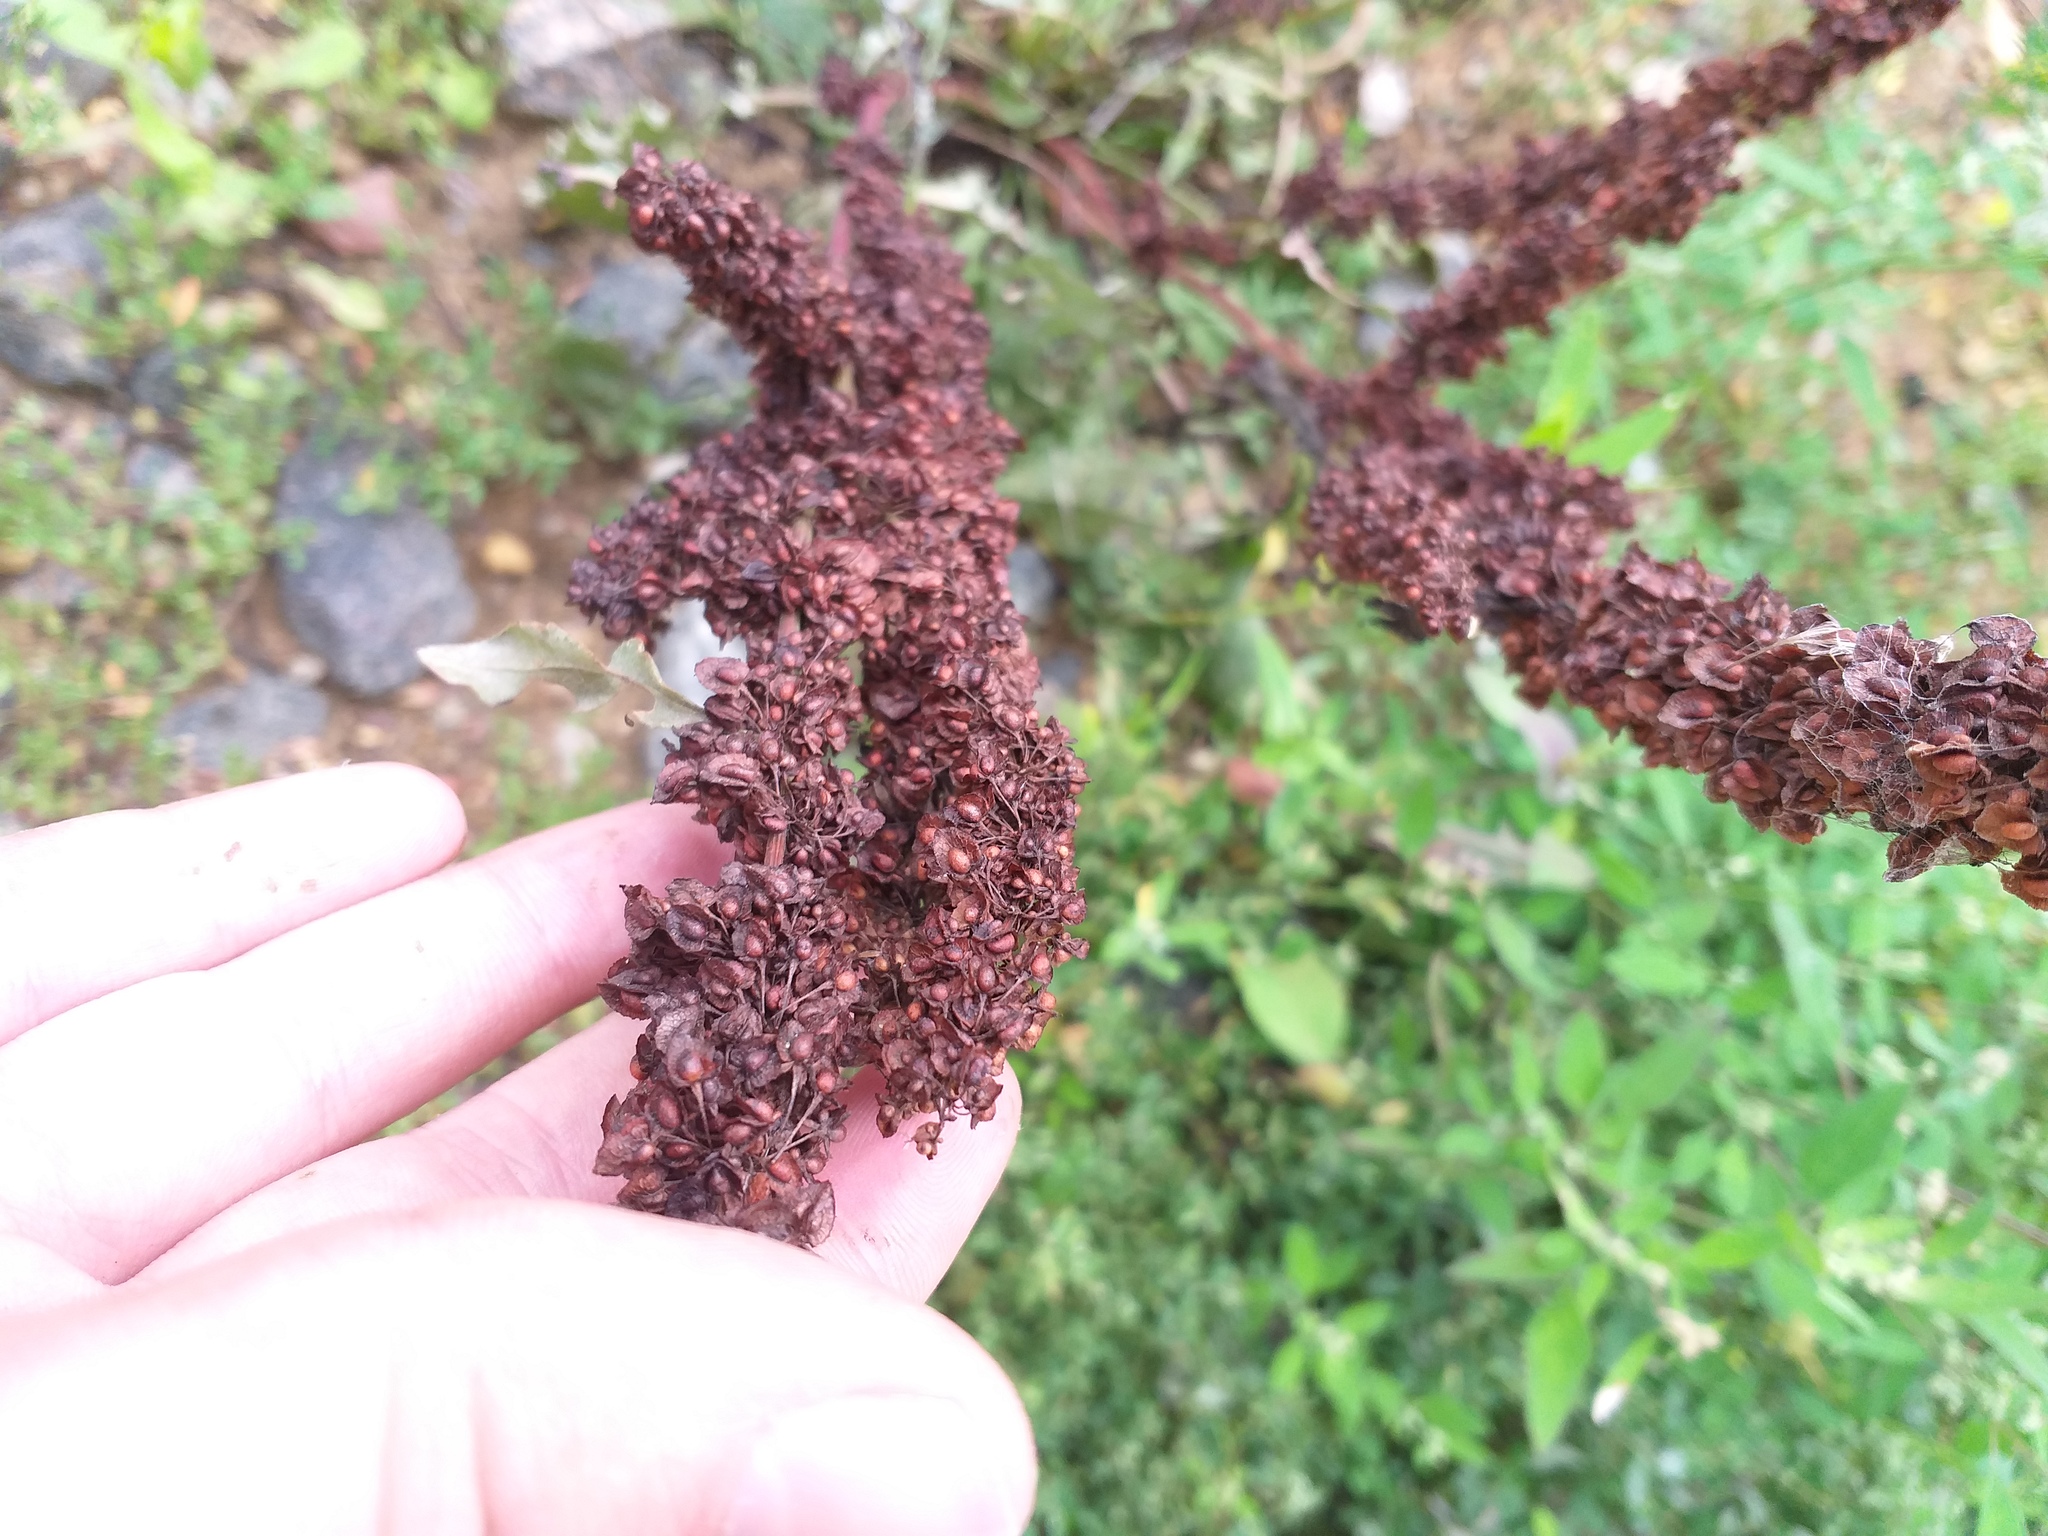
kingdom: Plantae
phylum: Tracheophyta
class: Magnoliopsida
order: Caryophyllales
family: Polygonaceae
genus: Rumex
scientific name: Rumex crispus
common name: Curled dock
